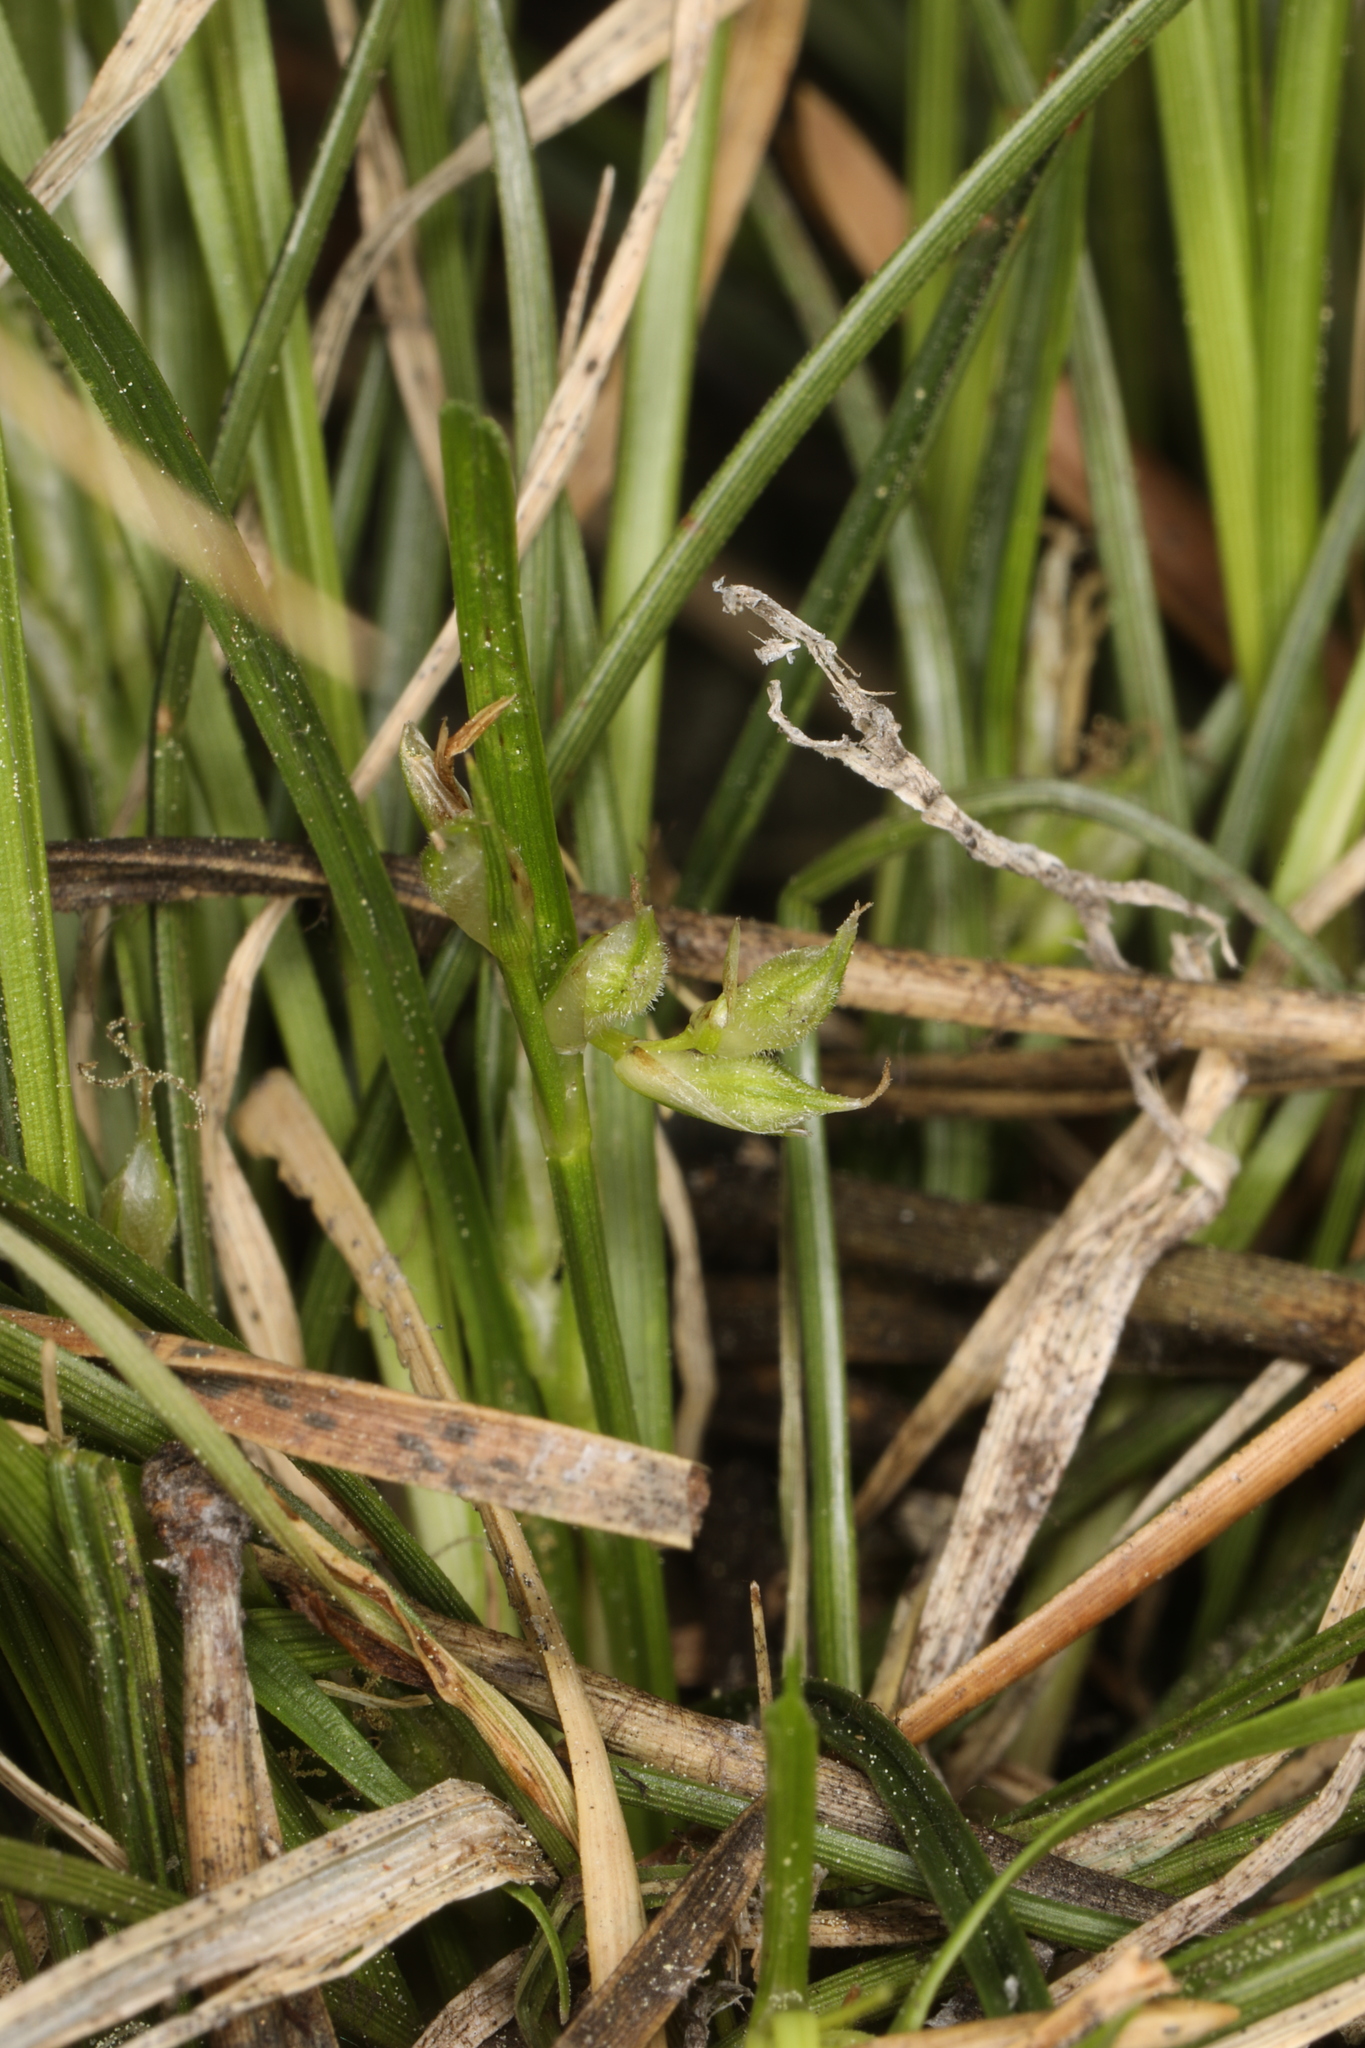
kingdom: Plantae
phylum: Tracheophyta
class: Liliopsida
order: Poales
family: Cyperaceae
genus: Carex
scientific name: Carex rossii
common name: Ross' sedge
